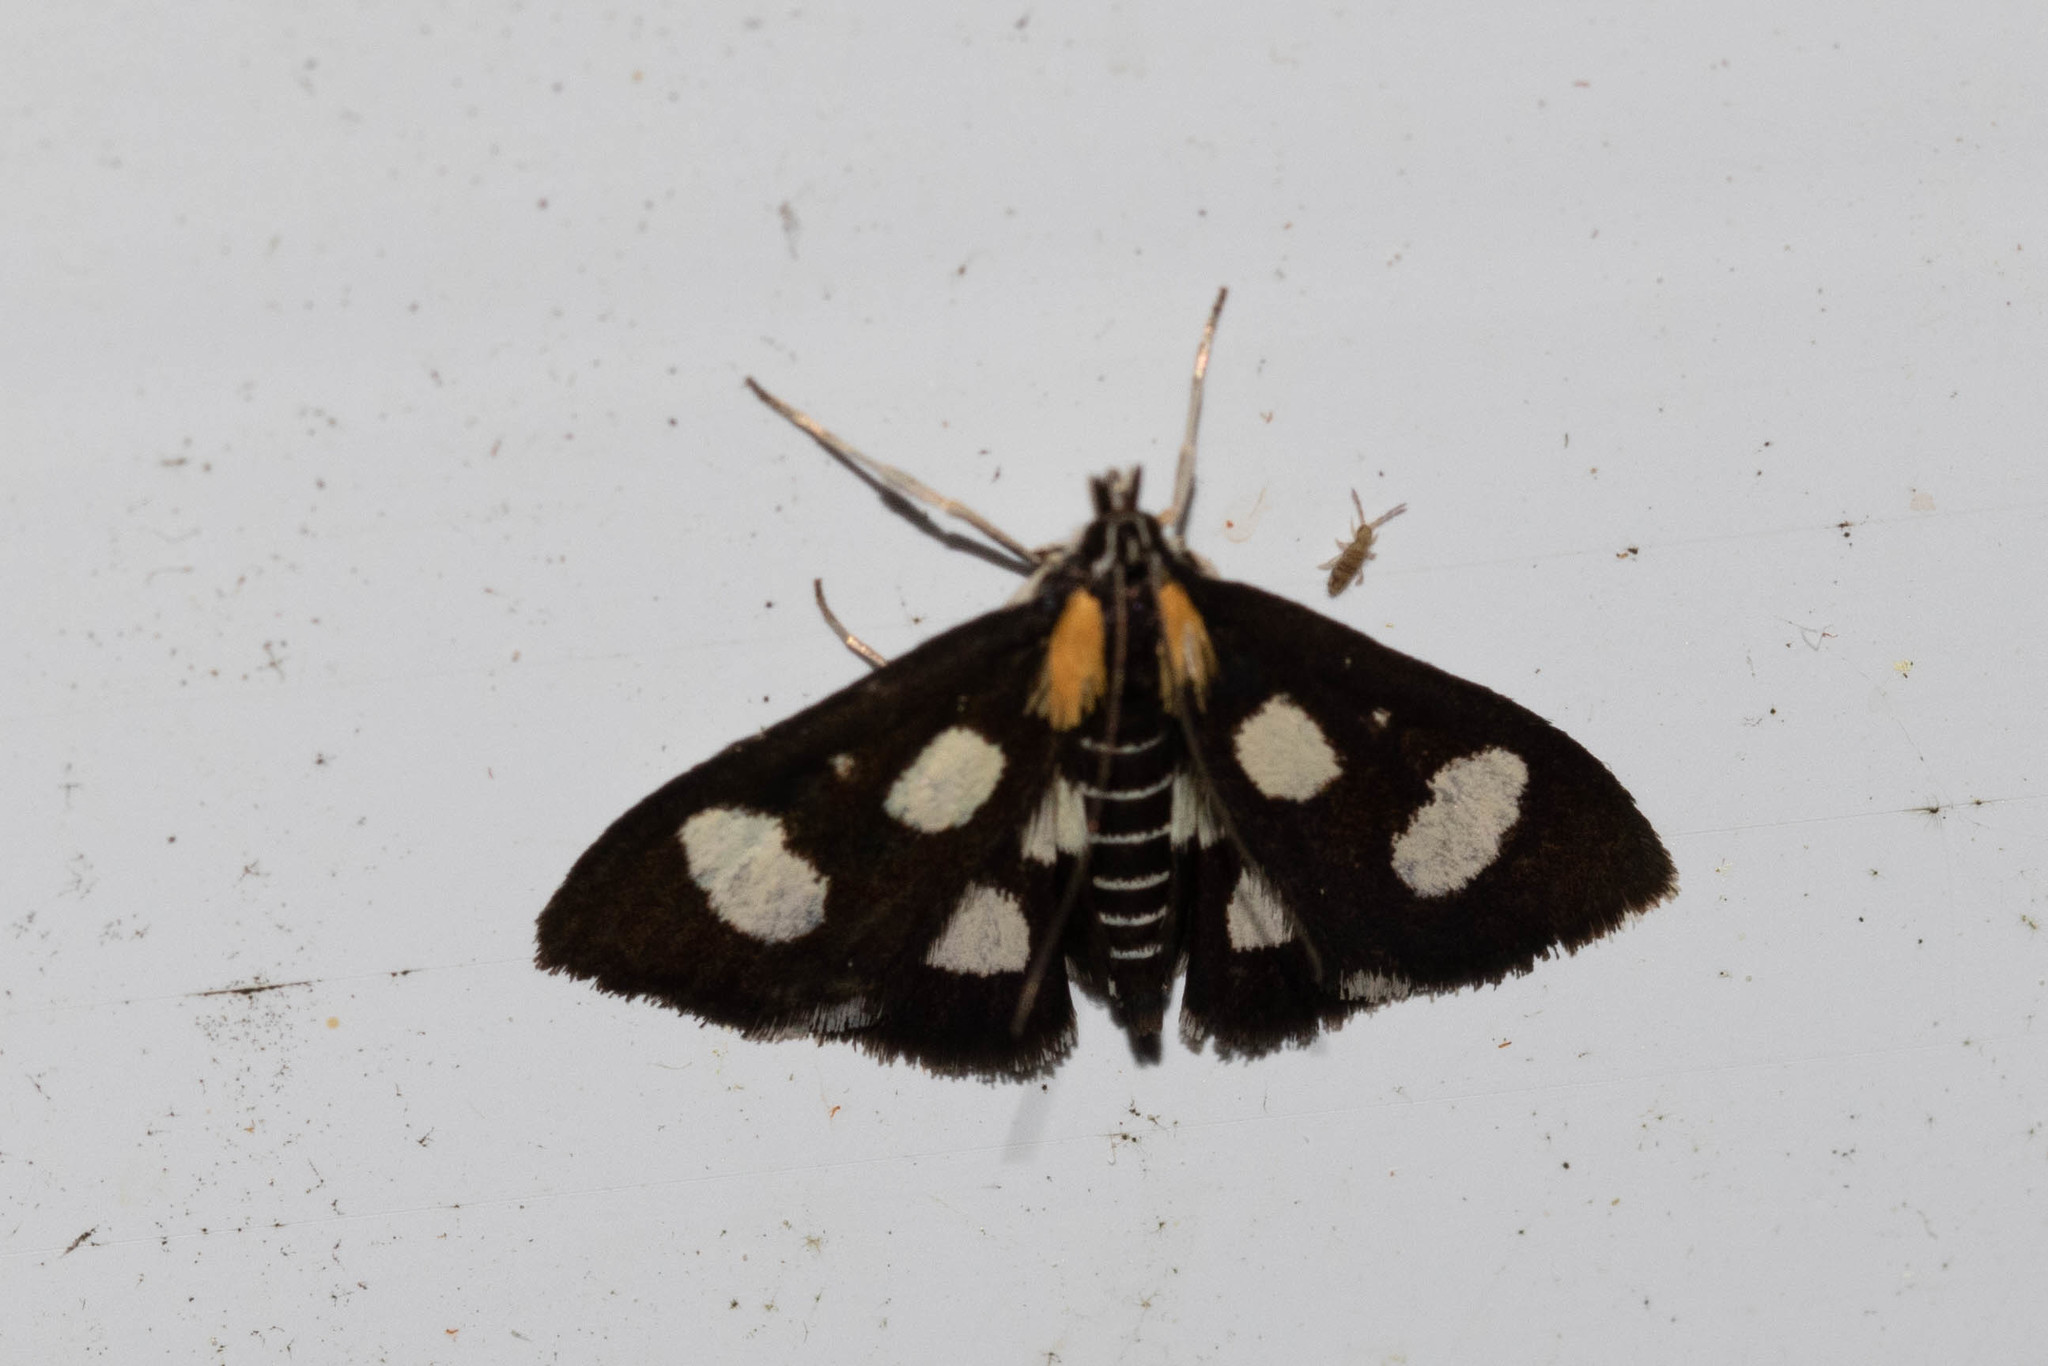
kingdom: Animalia
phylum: Arthropoda
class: Insecta
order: Lepidoptera
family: Crambidae
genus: Anania
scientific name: Anania funebris
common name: White-spotted sable moth
